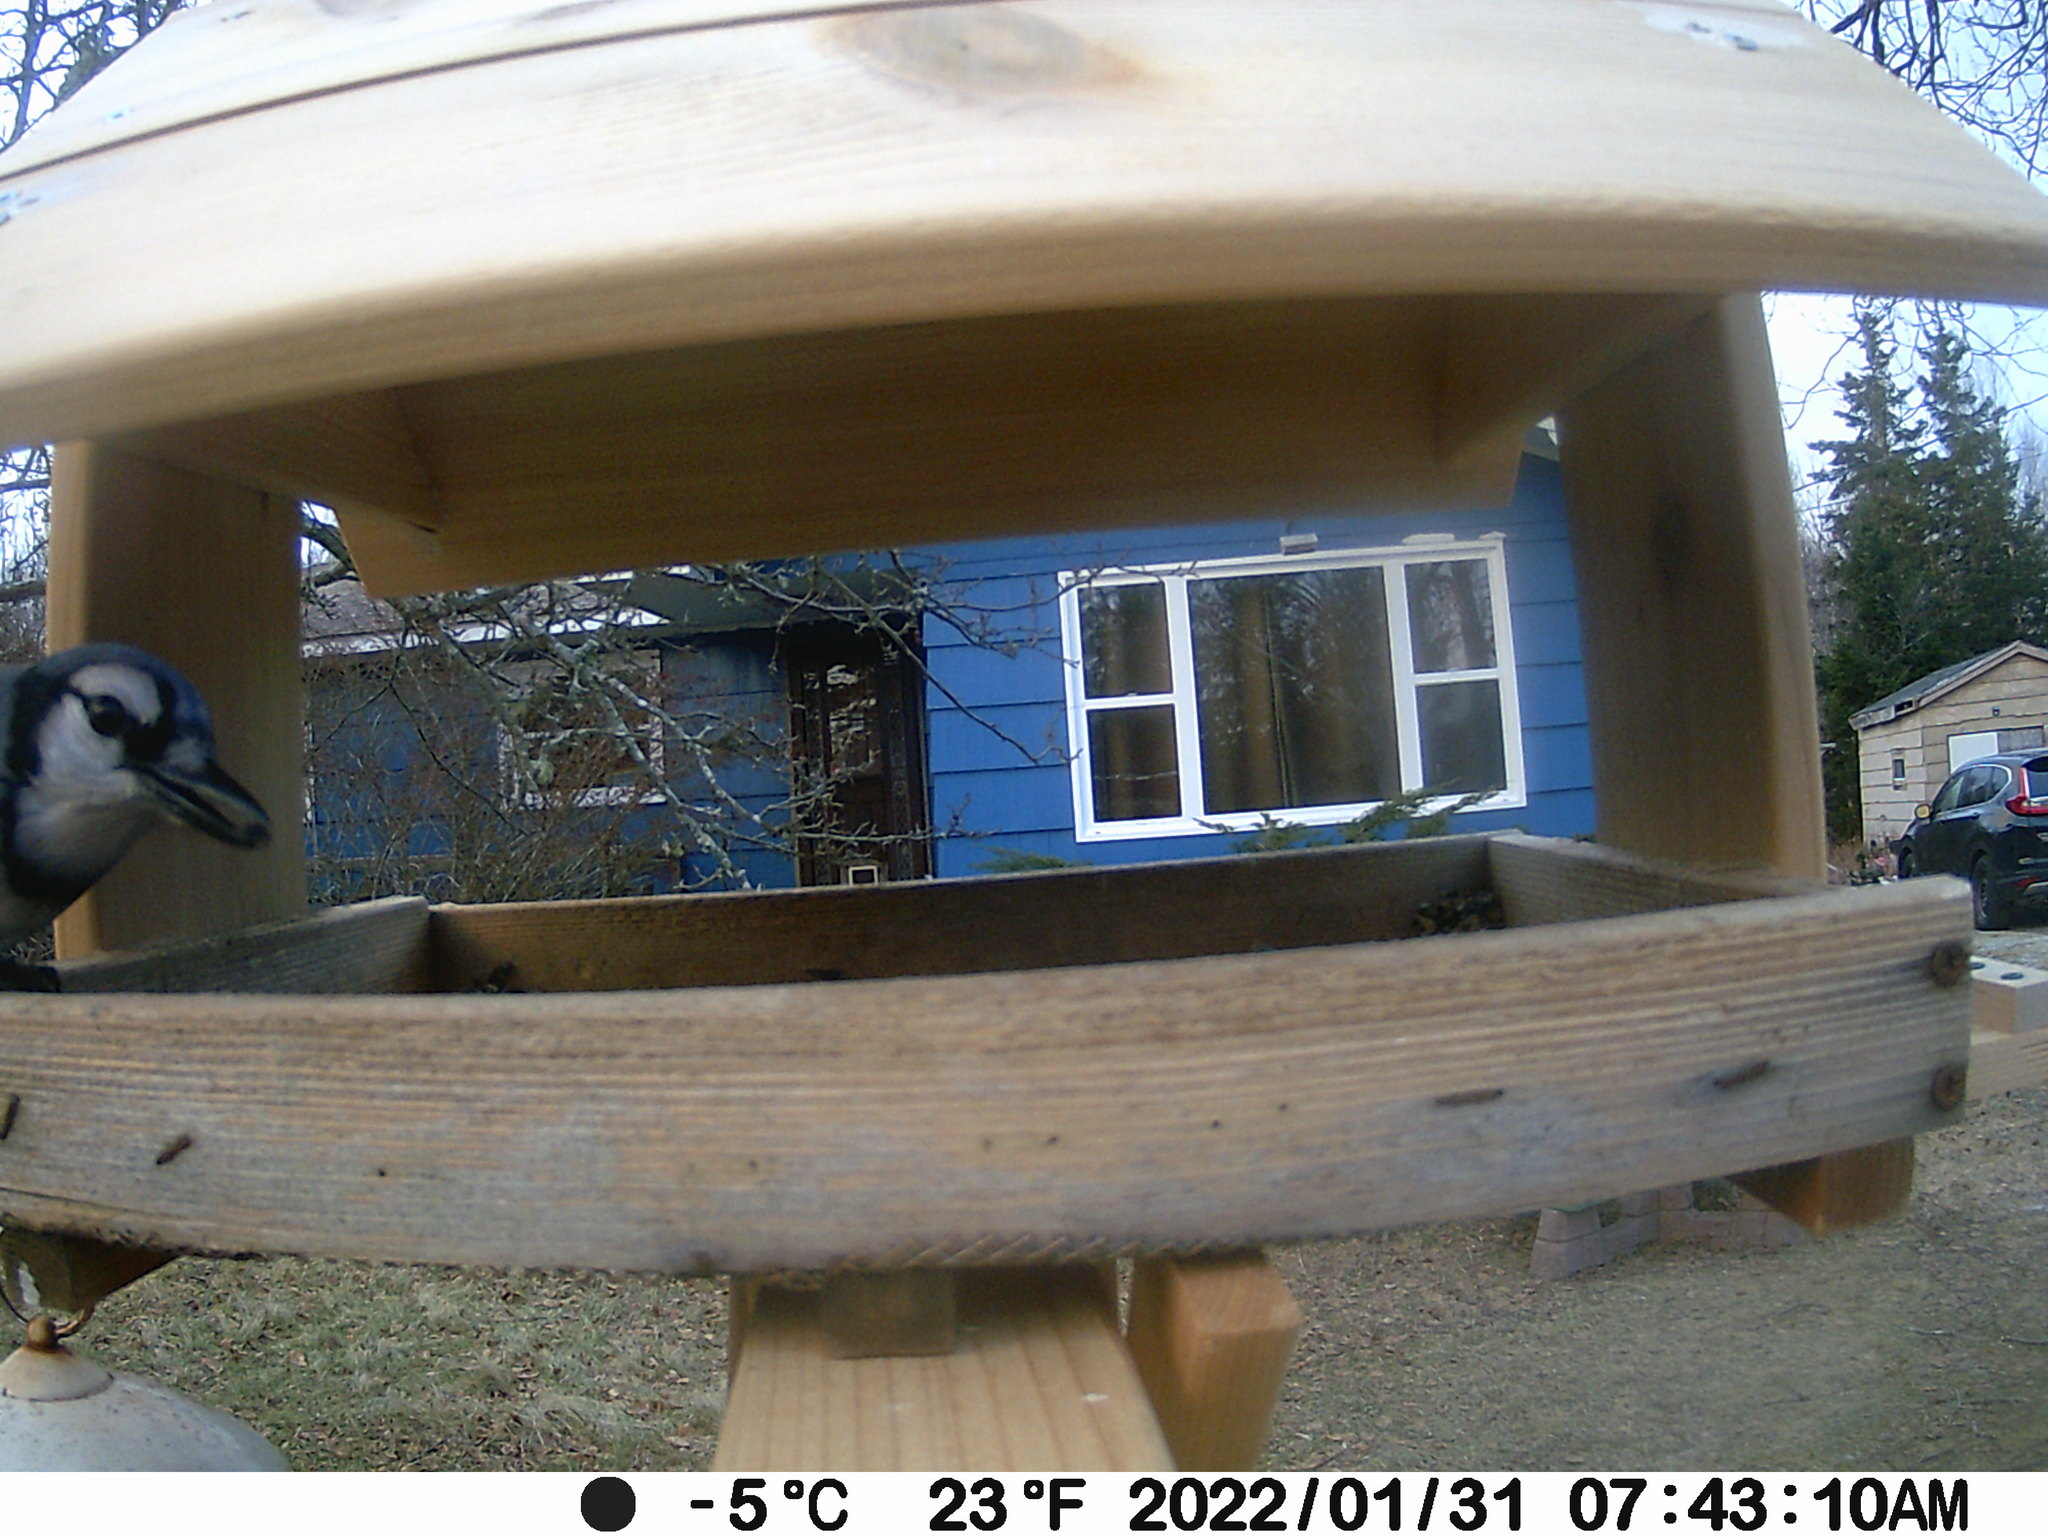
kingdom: Animalia
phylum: Chordata
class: Aves
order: Passeriformes
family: Corvidae
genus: Cyanocitta
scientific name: Cyanocitta cristata
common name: Blue jay
